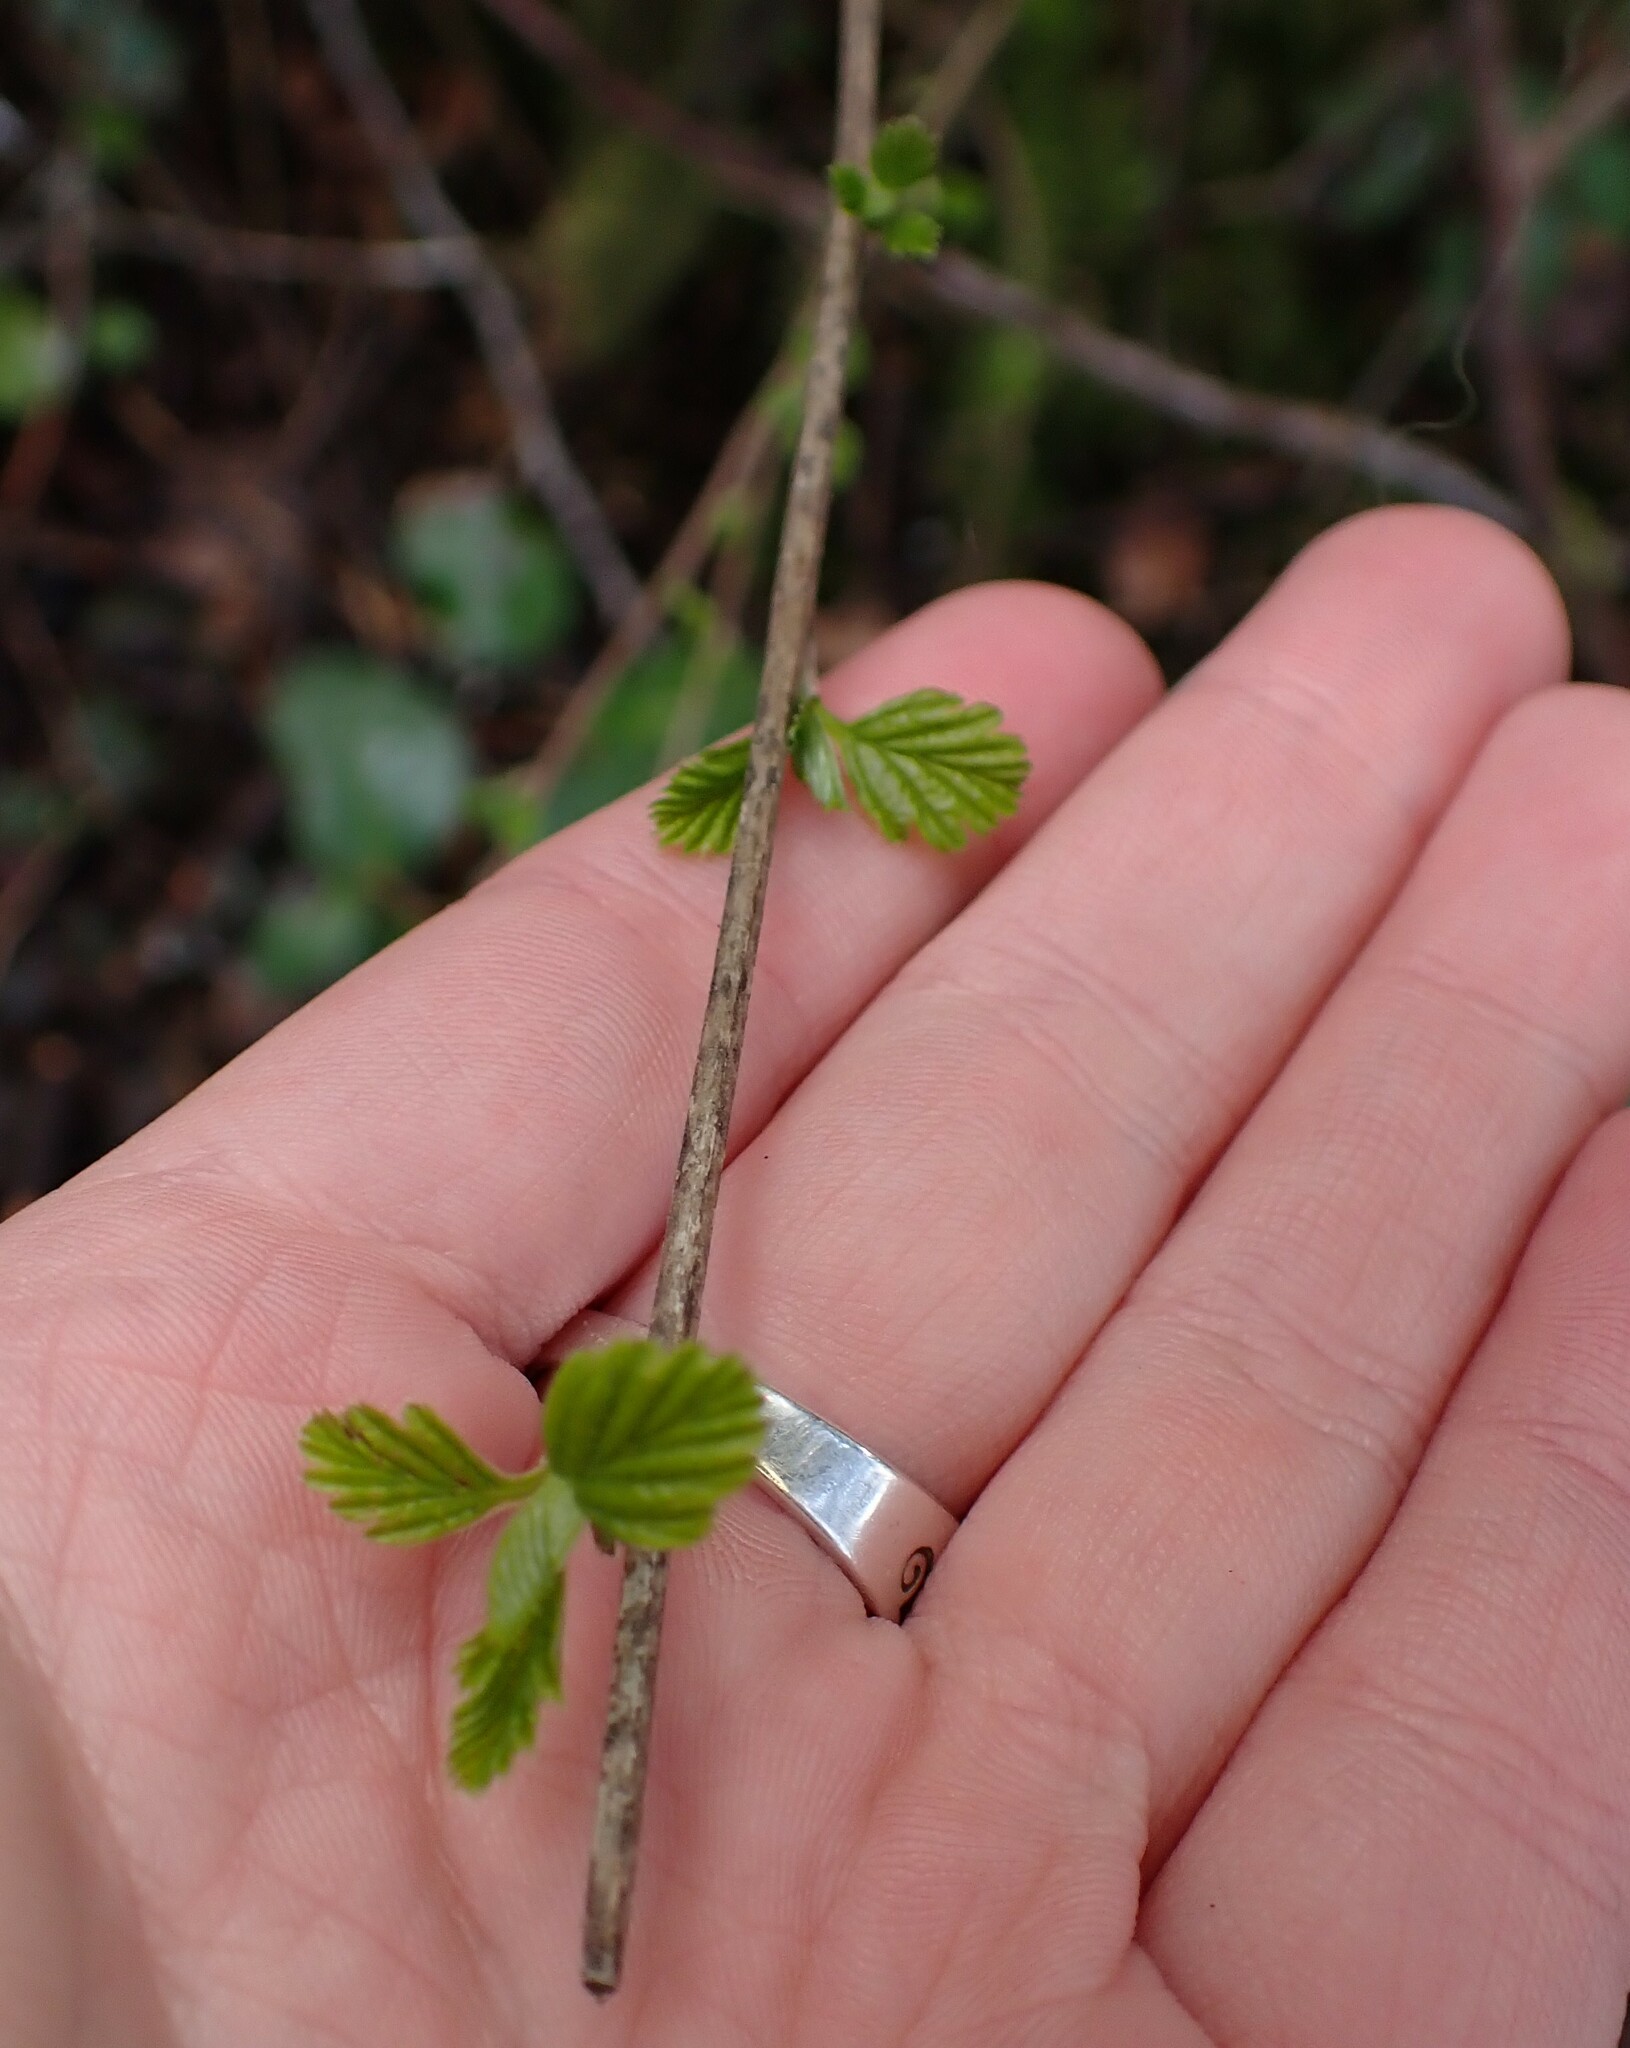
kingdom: Plantae
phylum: Tracheophyta
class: Magnoliopsida
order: Rosales
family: Rosaceae
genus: Holodiscus
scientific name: Holodiscus discolor
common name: Oceanspray
